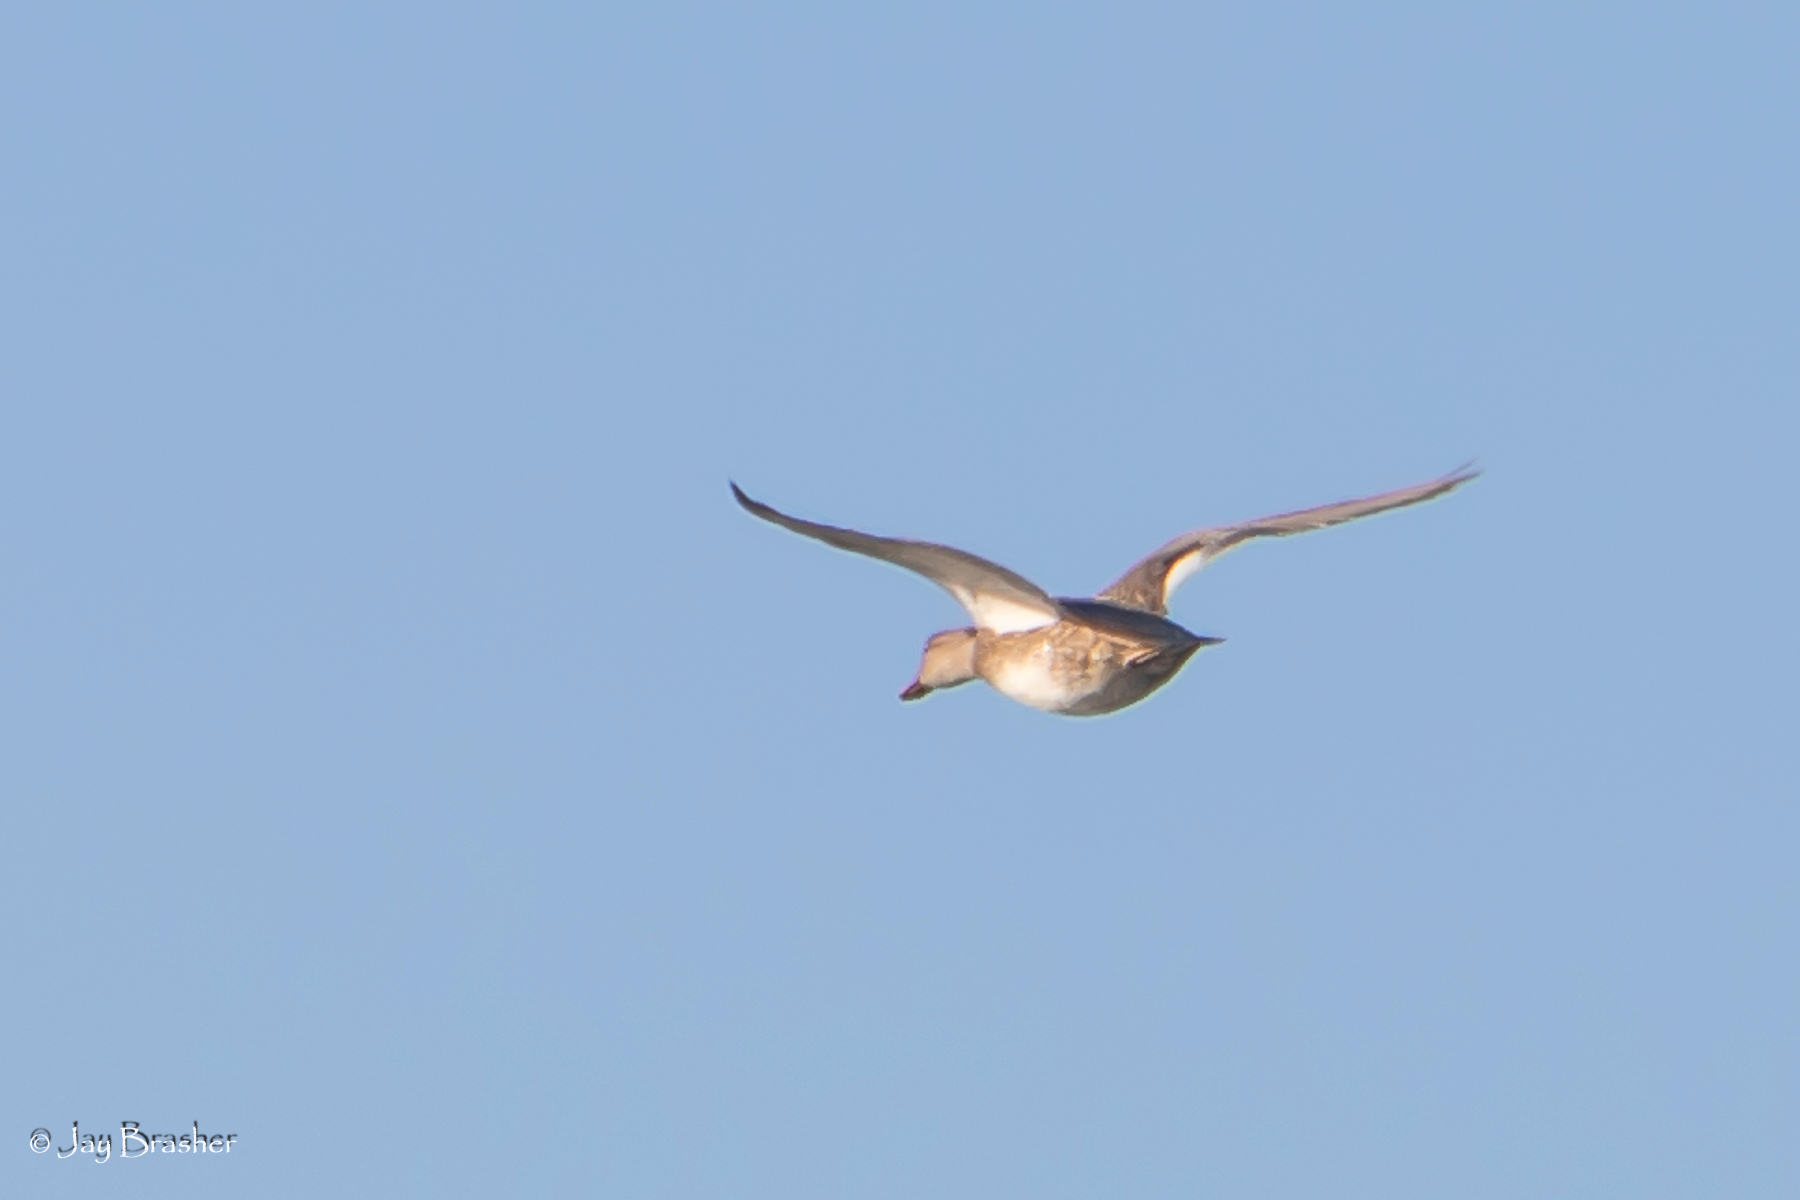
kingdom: Animalia
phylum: Chordata
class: Aves
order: Anseriformes
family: Anatidae
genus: Mareca
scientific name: Mareca strepera
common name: Gadwall
